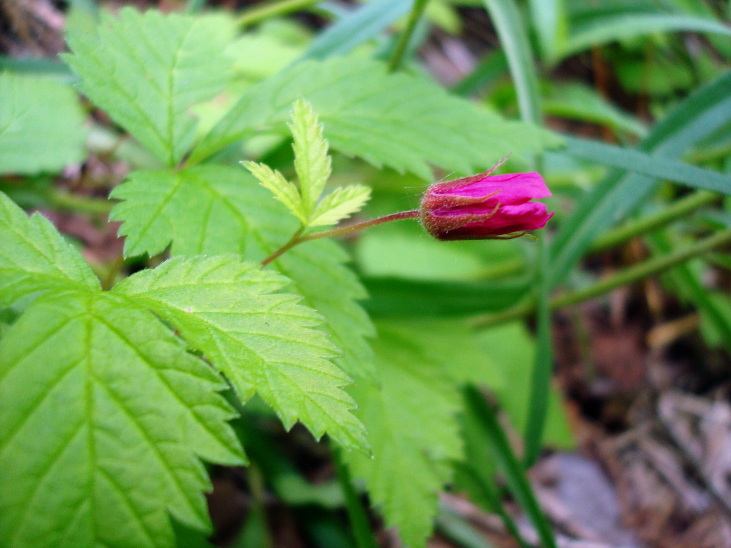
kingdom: Plantae
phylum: Tracheophyta
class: Magnoliopsida
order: Rosales
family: Rosaceae
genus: Rubus
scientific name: Rubus arcticus
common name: Arctic bramble
